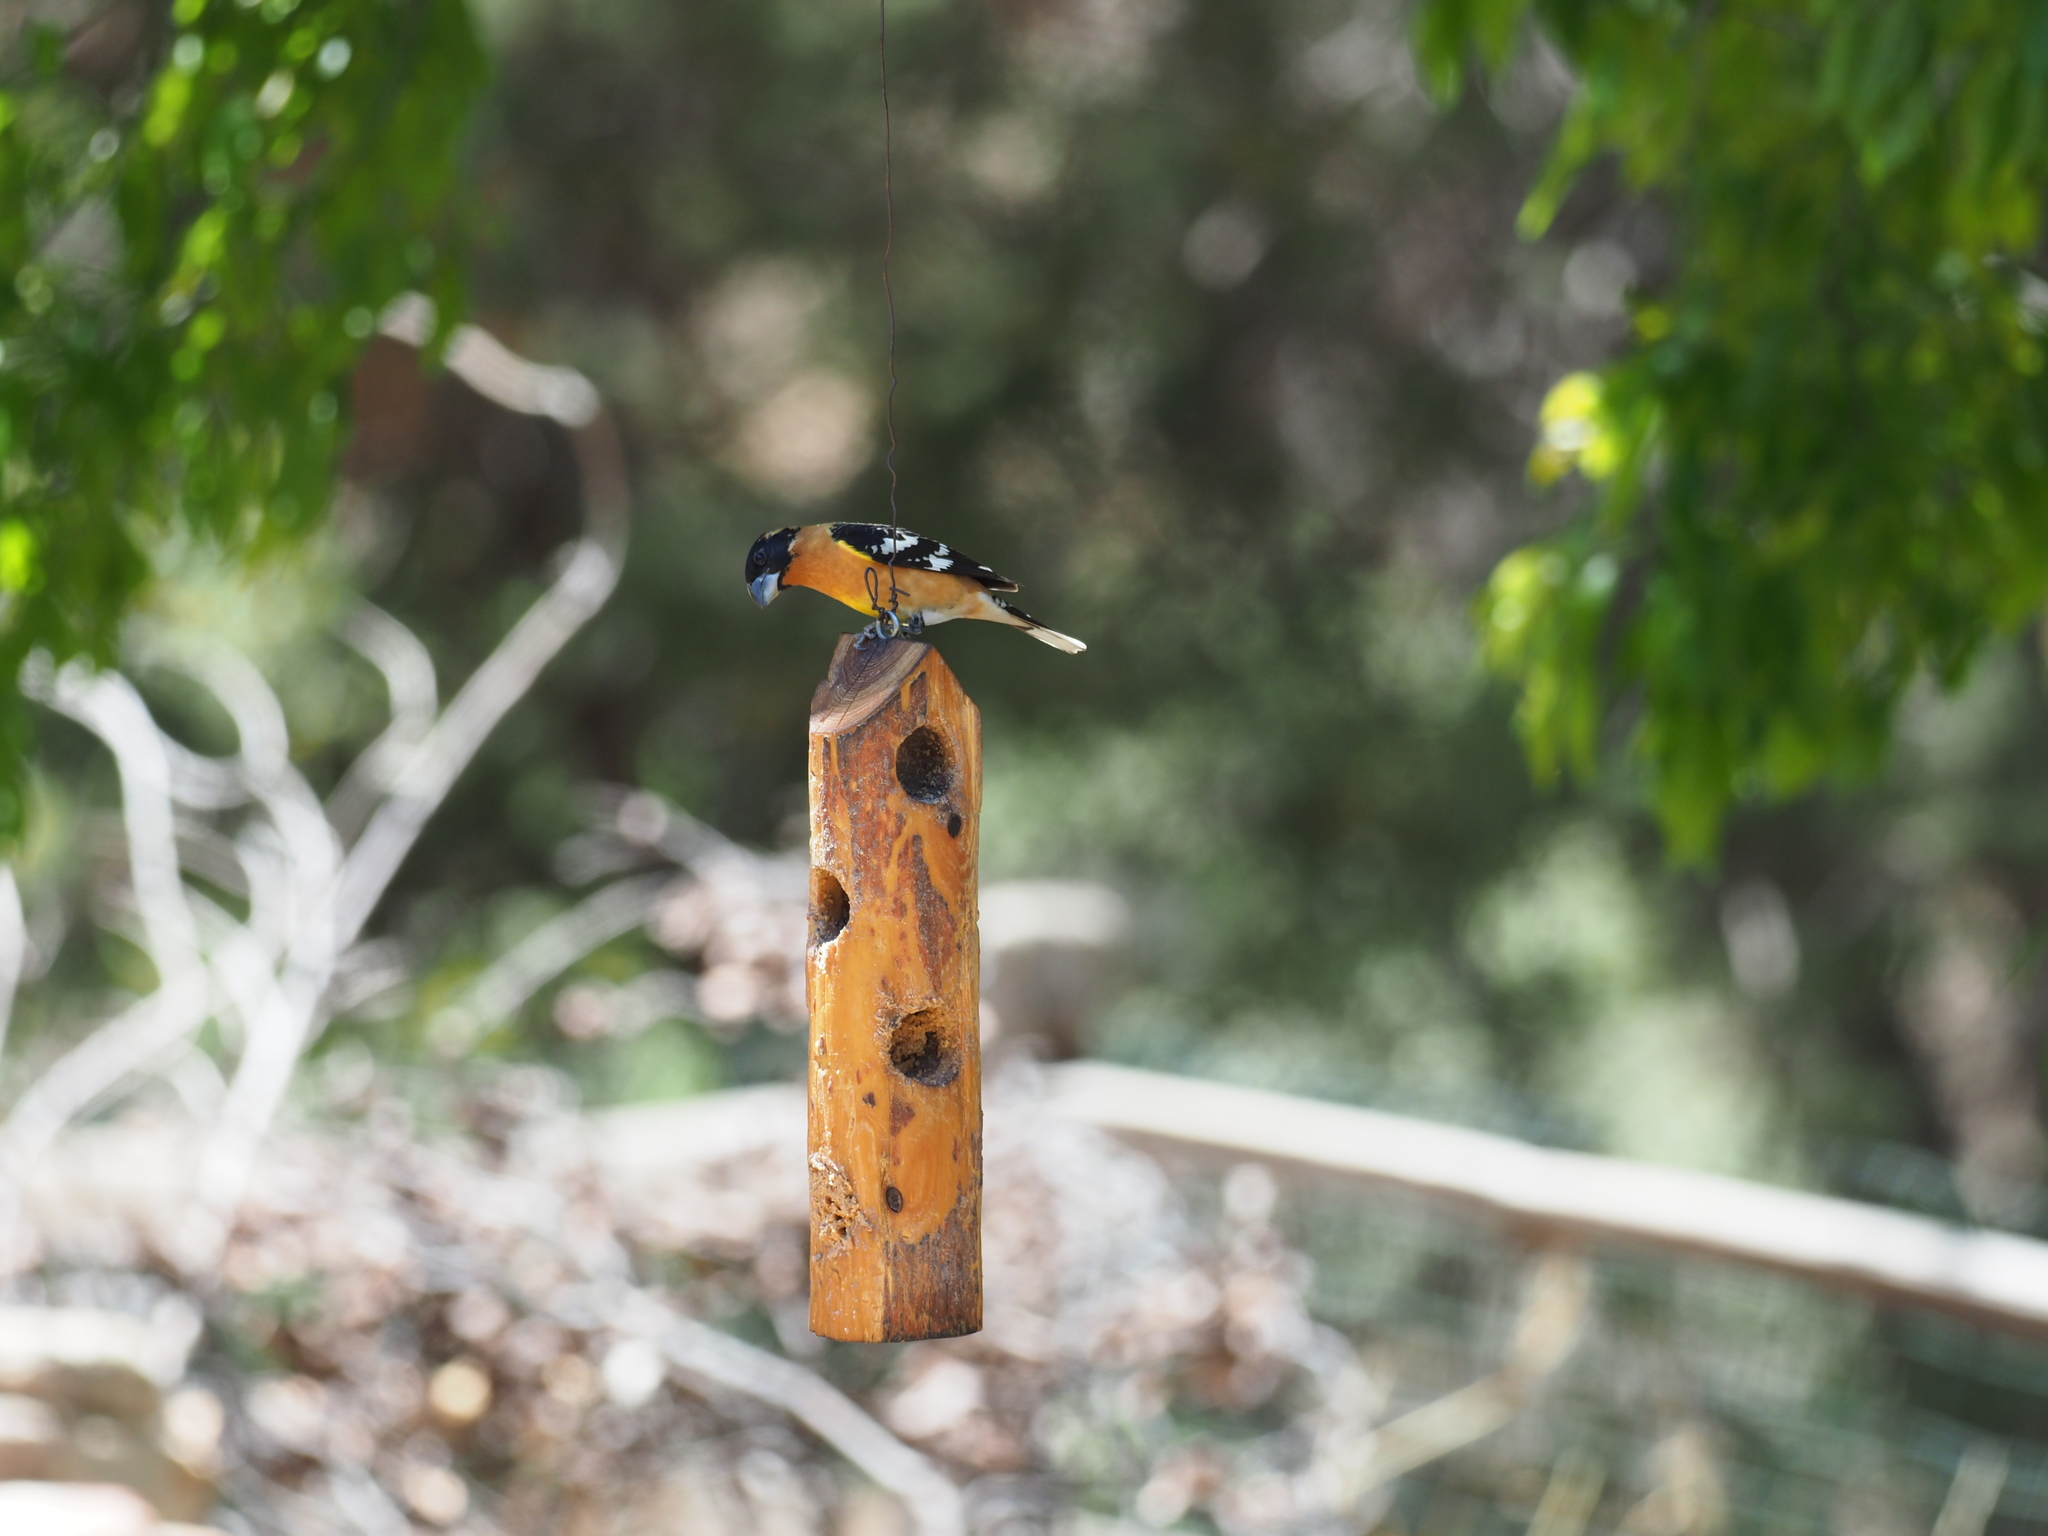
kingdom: Animalia
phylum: Chordata
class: Aves
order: Passeriformes
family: Cardinalidae
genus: Pheucticus
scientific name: Pheucticus melanocephalus
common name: Black-headed grosbeak
